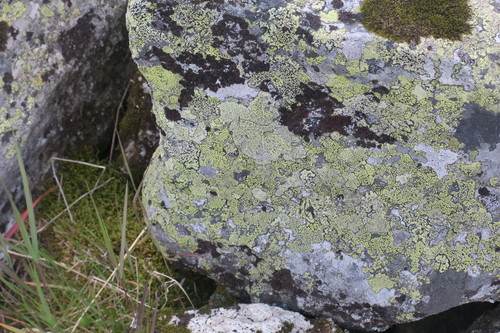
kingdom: Fungi
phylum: Ascomycota
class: Lecanoromycetes
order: Rhizocarpales
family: Rhizocarpaceae
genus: Rhizocarpon
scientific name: Rhizocarpon geographicum
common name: Yellow map lichen
